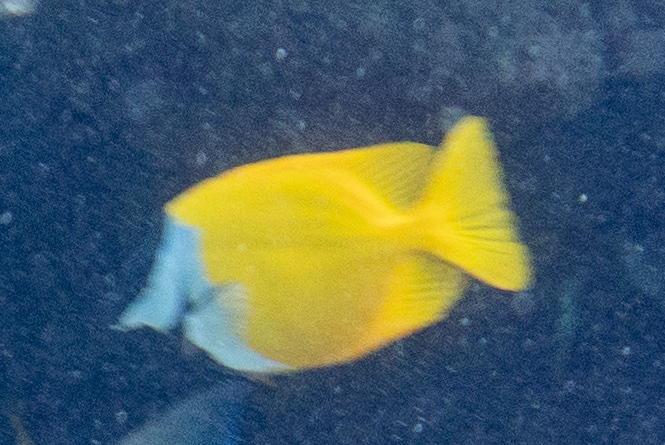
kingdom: Animalia
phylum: Chordata
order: Perciformes
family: Siganidae
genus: Siganus
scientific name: Siganus vulpinus
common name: Foxface
